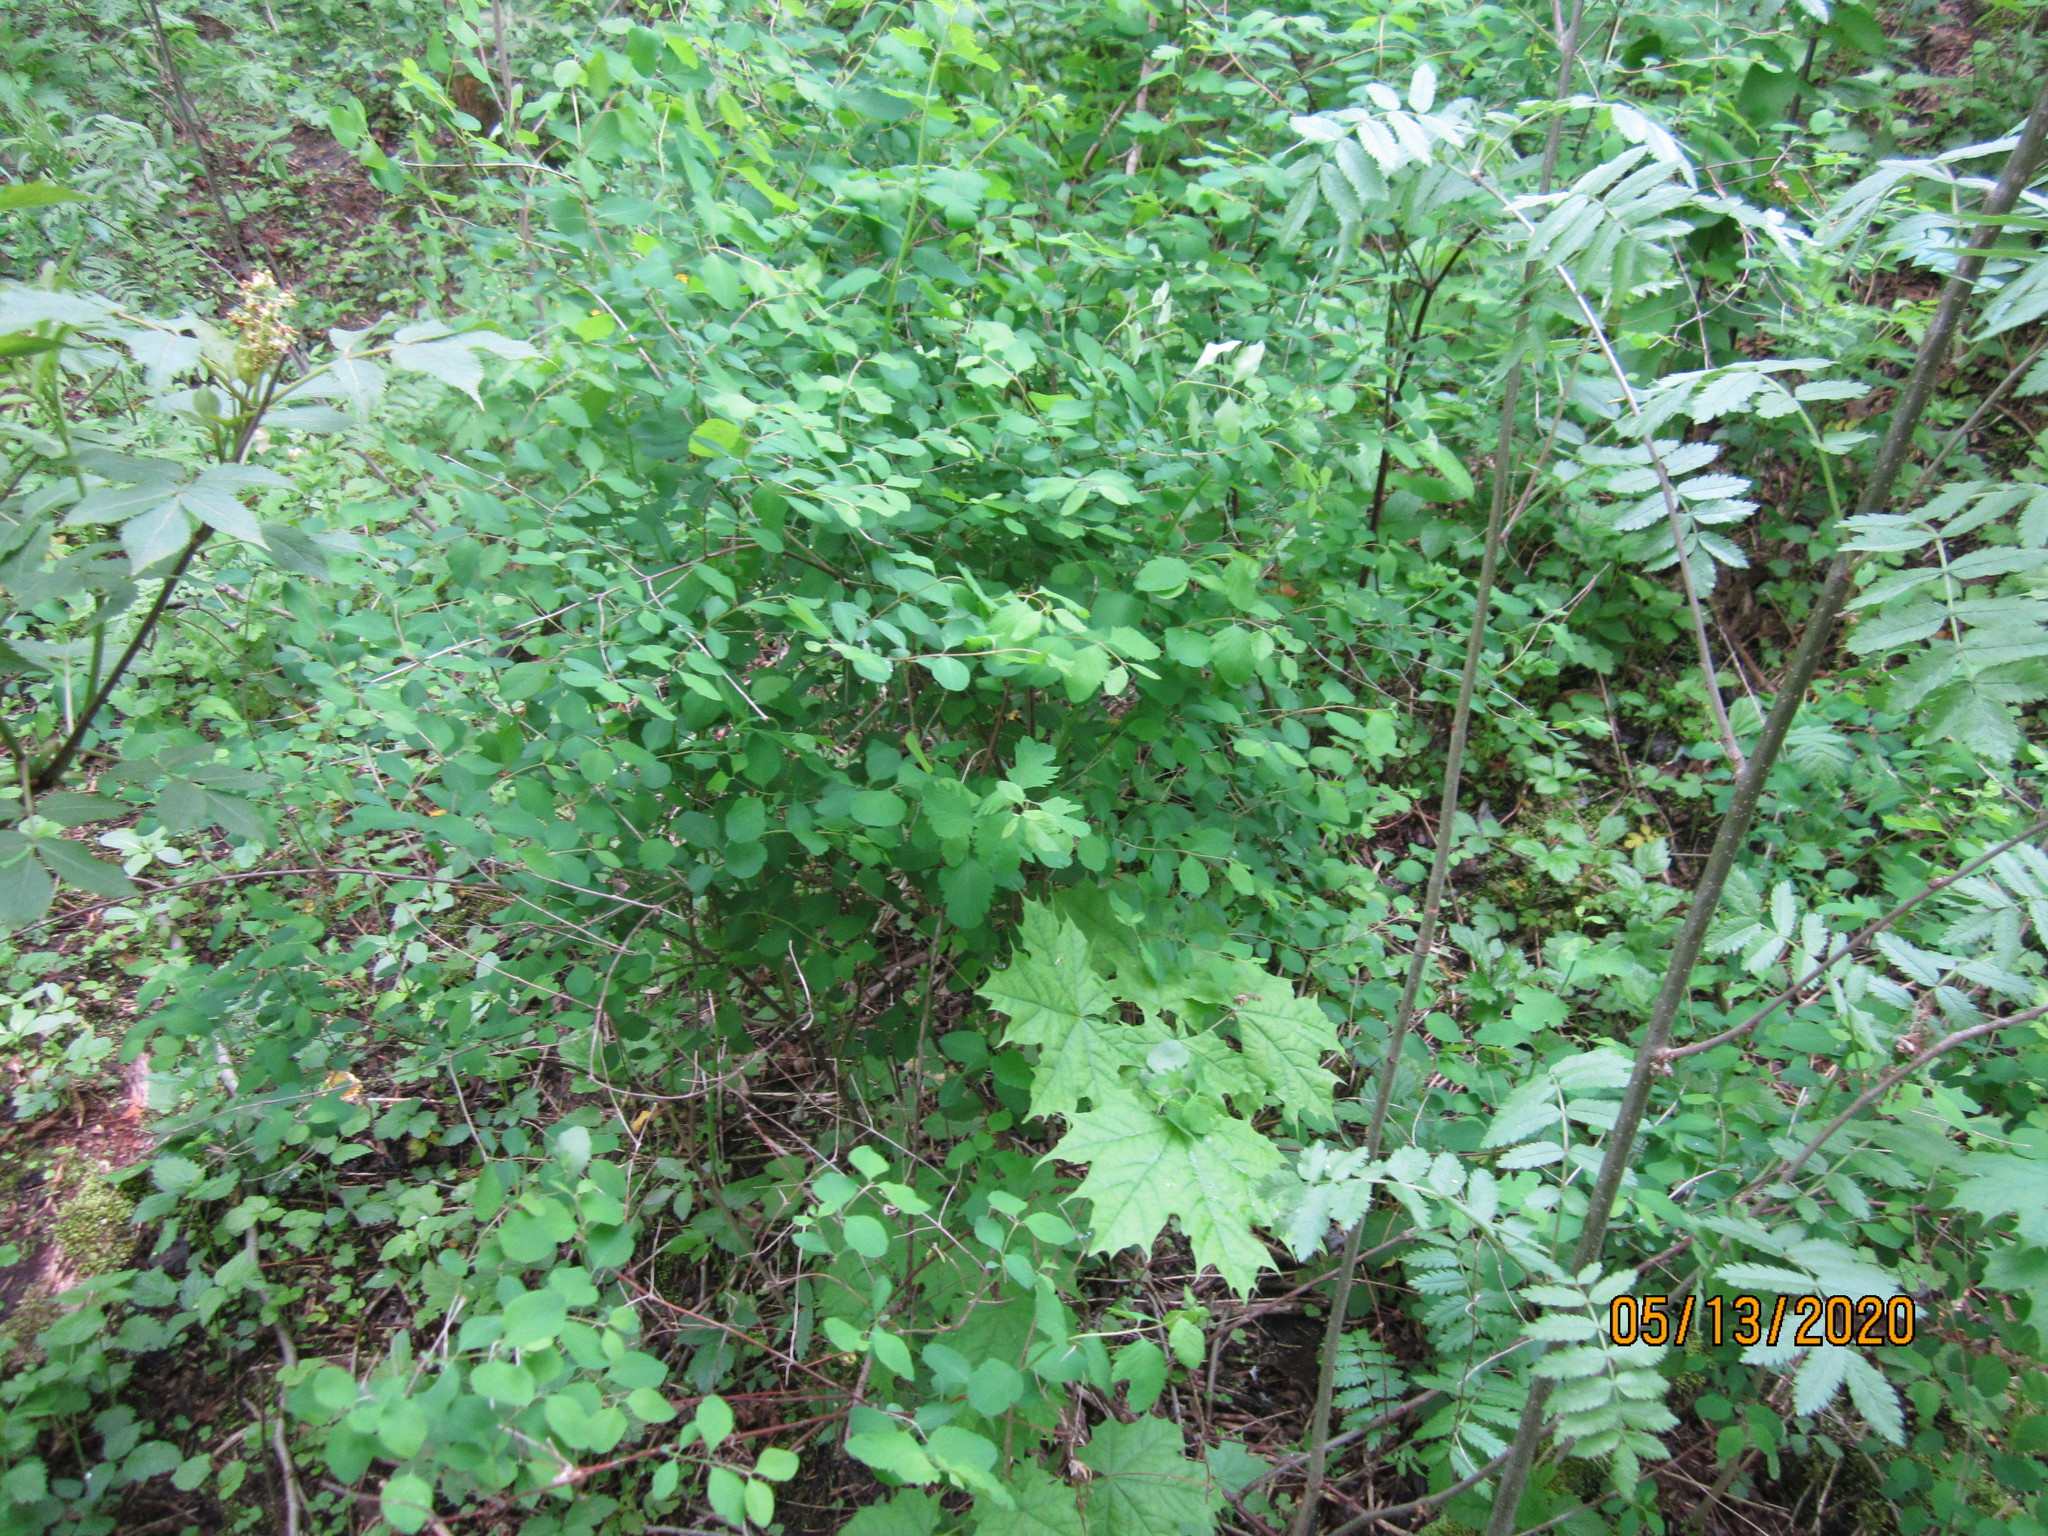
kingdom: Plantae
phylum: Tracheophyta
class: Magnoliopsida
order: Dipsacales
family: Caprifoliaceae
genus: Symphoricarpos
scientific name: Symphoricarpos albus
